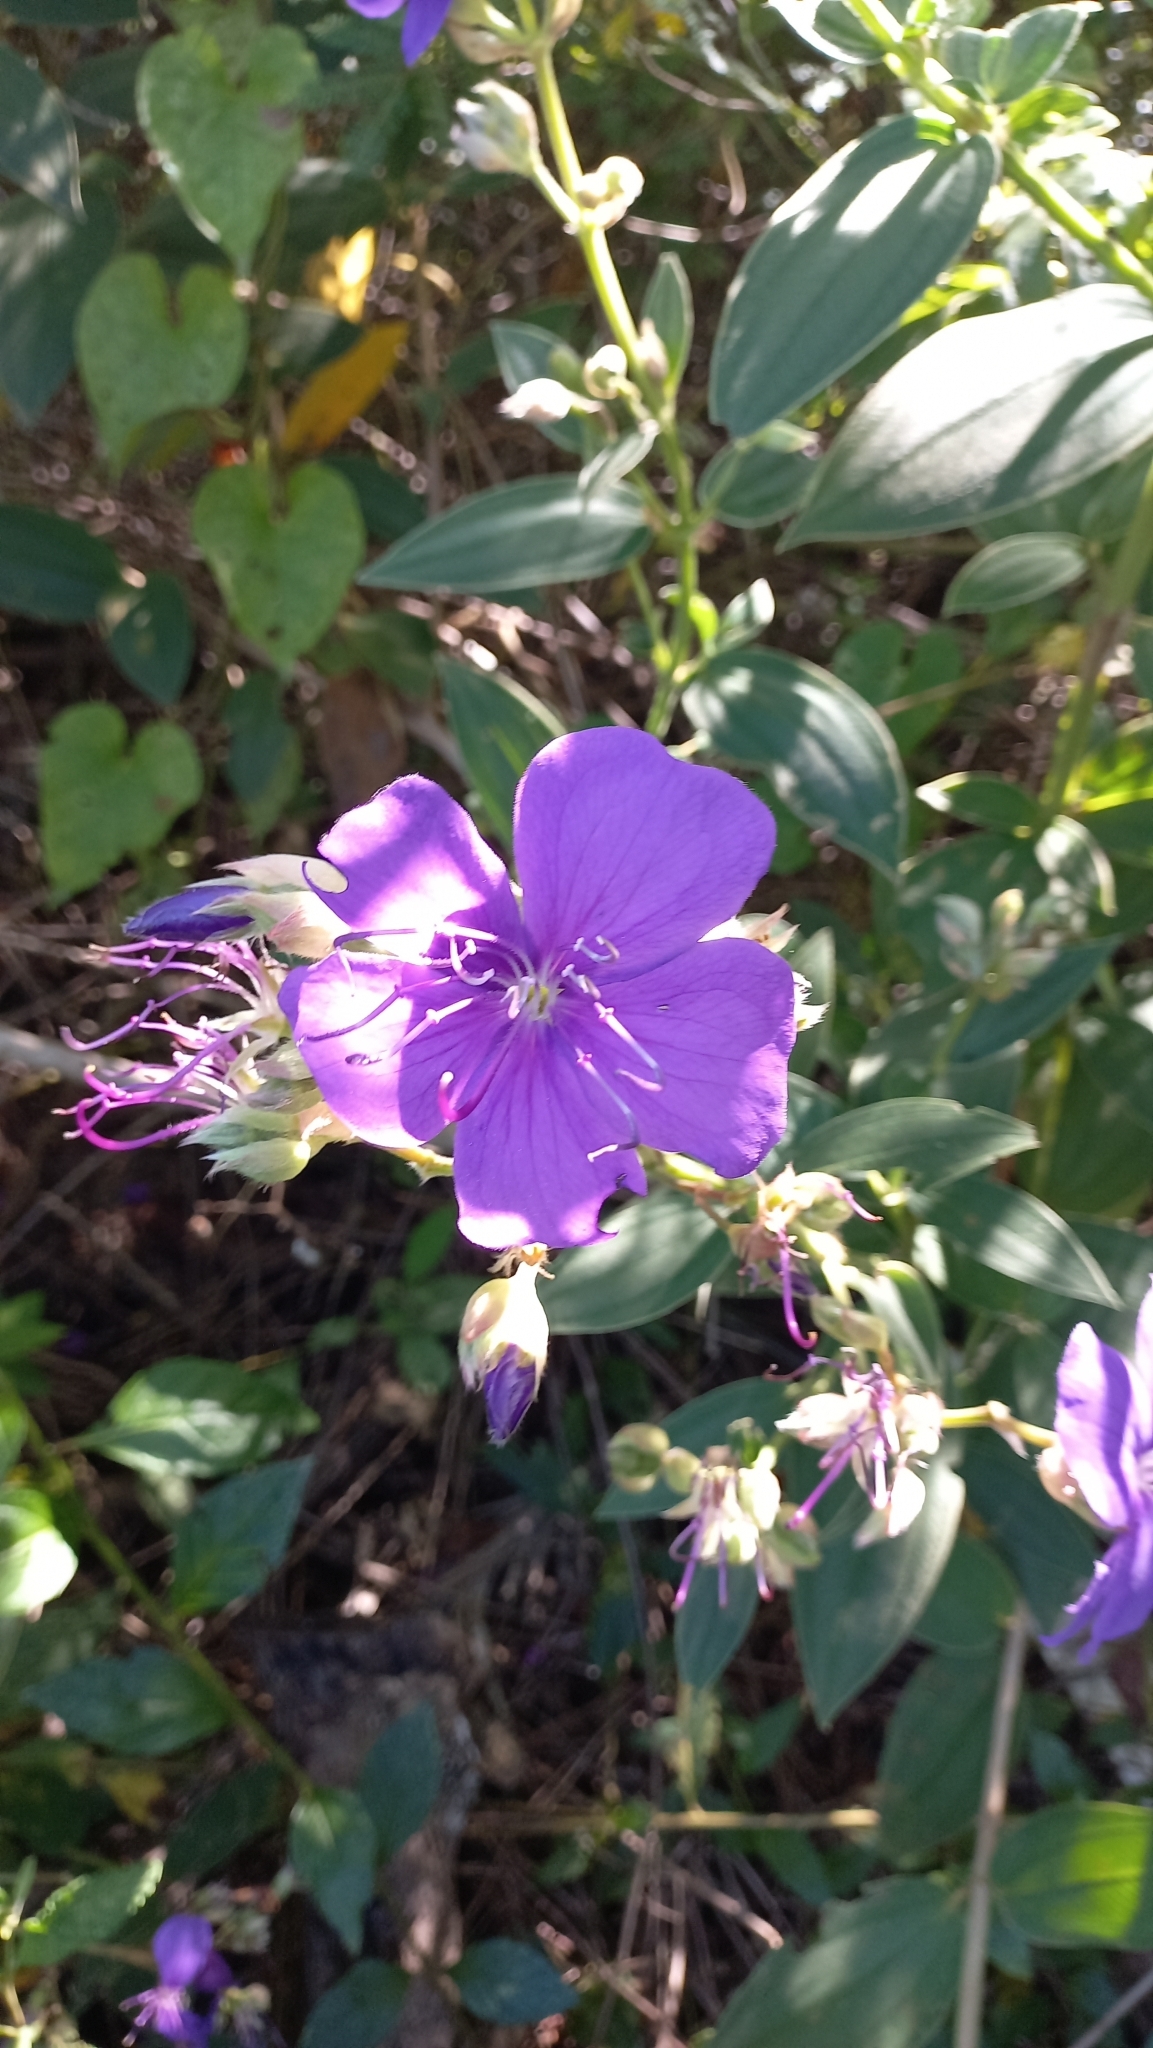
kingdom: Plantae
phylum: Tracheophyta
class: Magnoliopsida
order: Myrtales
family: Melastomataceae
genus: Pleroma
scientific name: Pleroma urvilleanum
